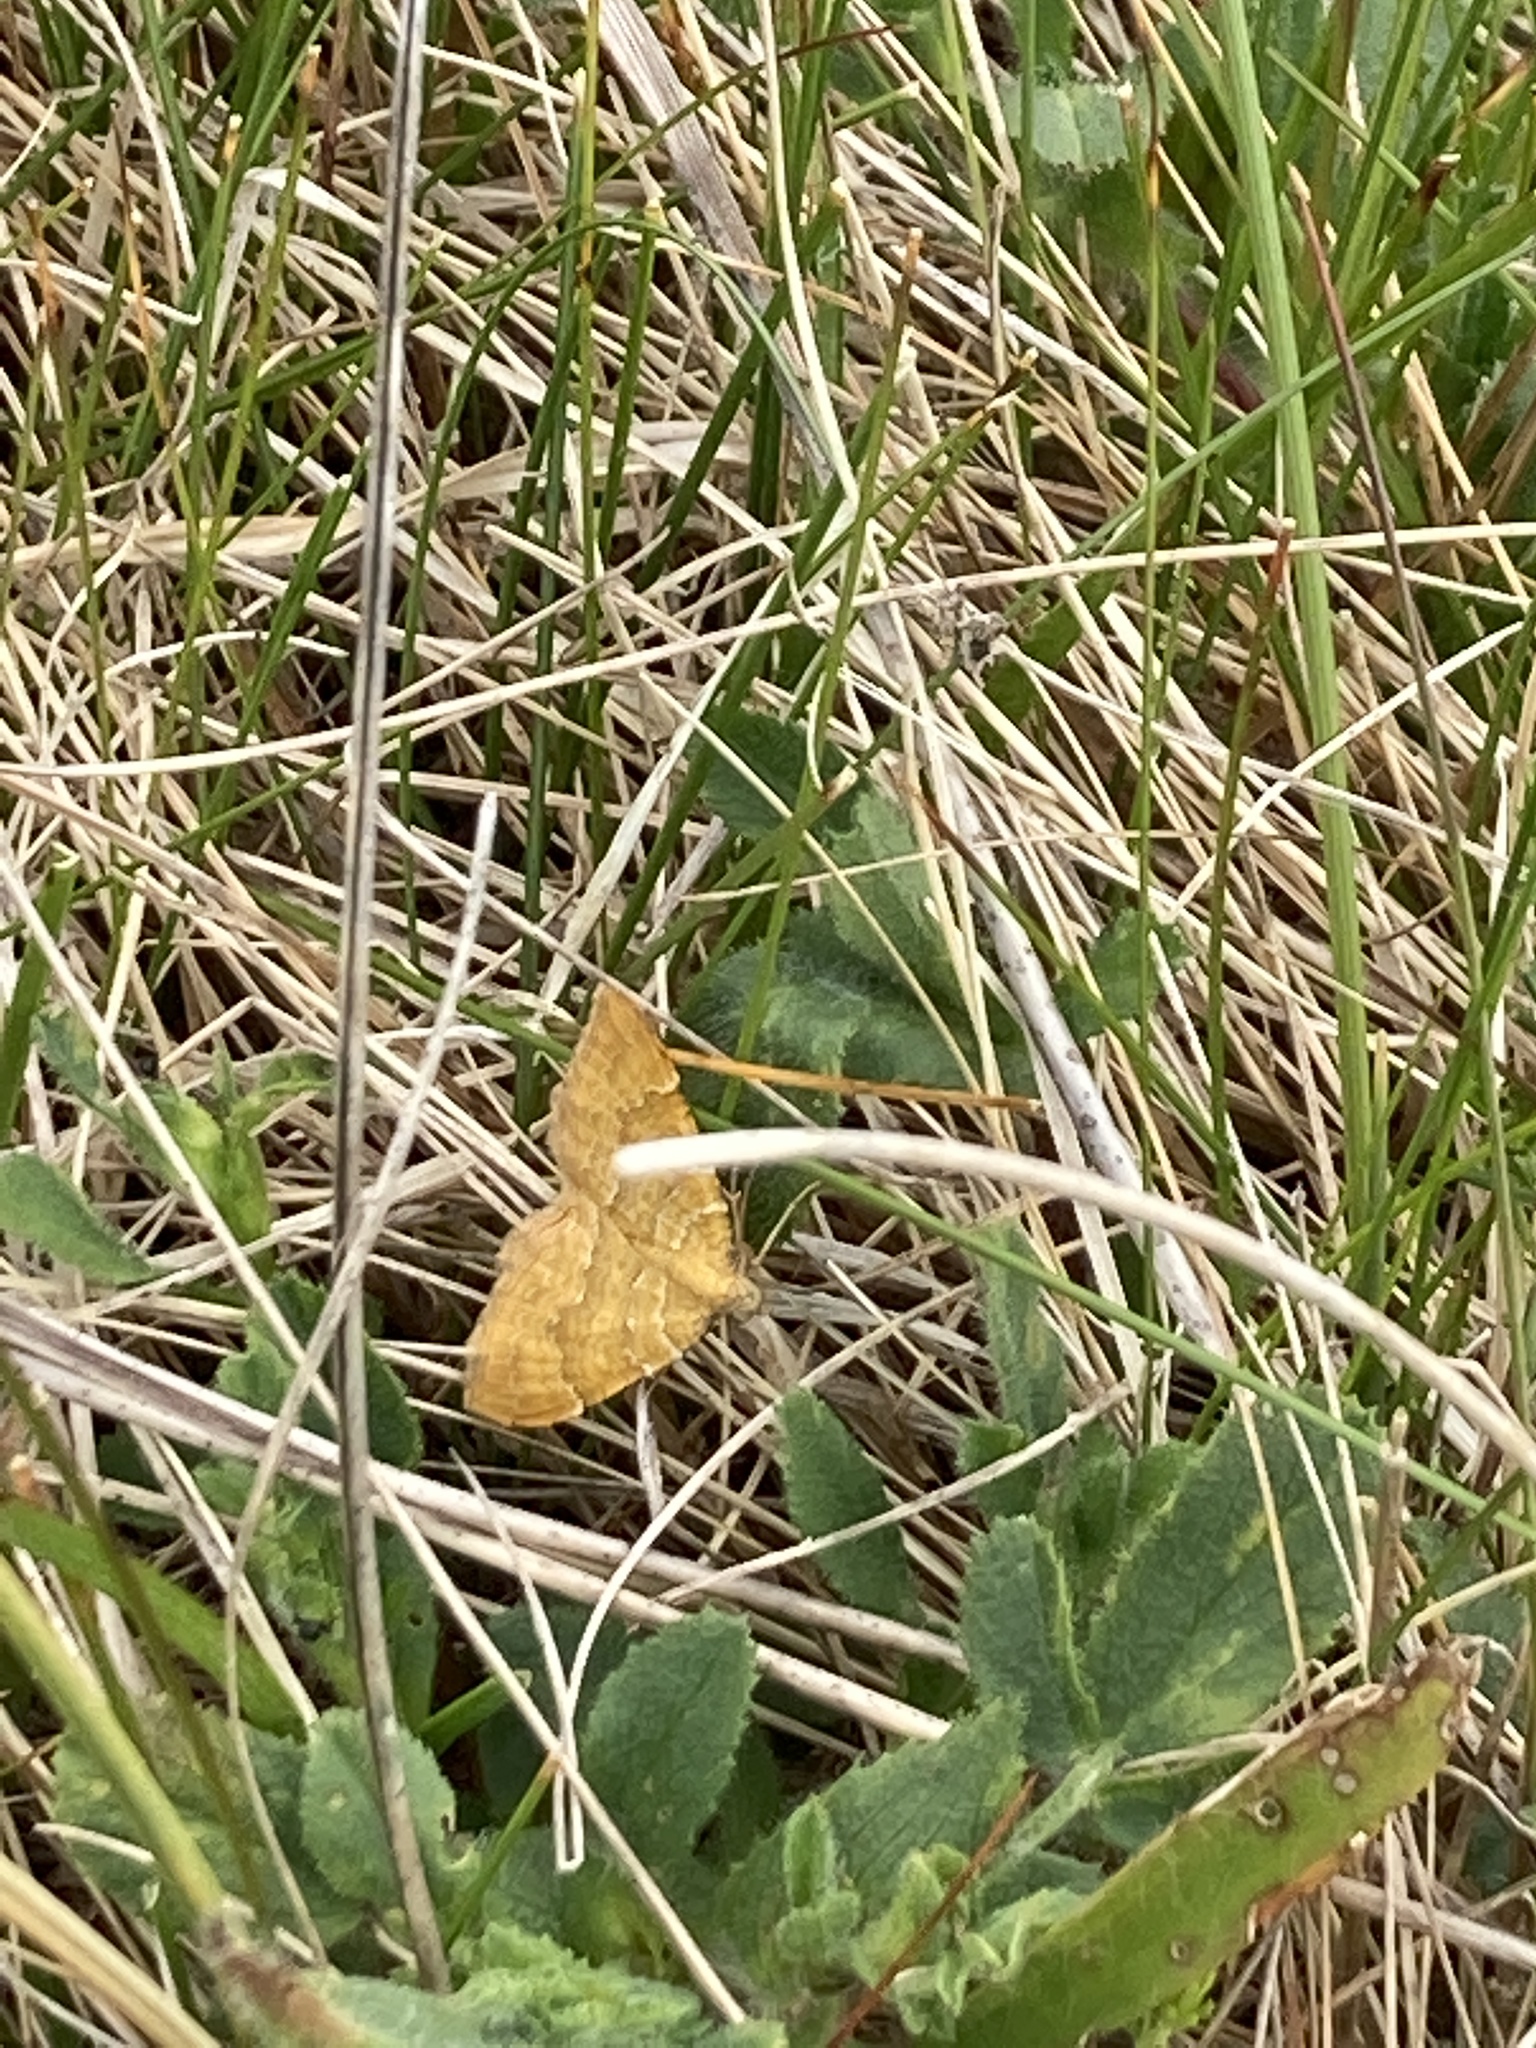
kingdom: Animalia
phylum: Arthropoda
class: Insecta
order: Lepidoptera
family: Geometridae
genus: Camptogramma
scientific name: Camptogramma bilineata
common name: Yellow shell
